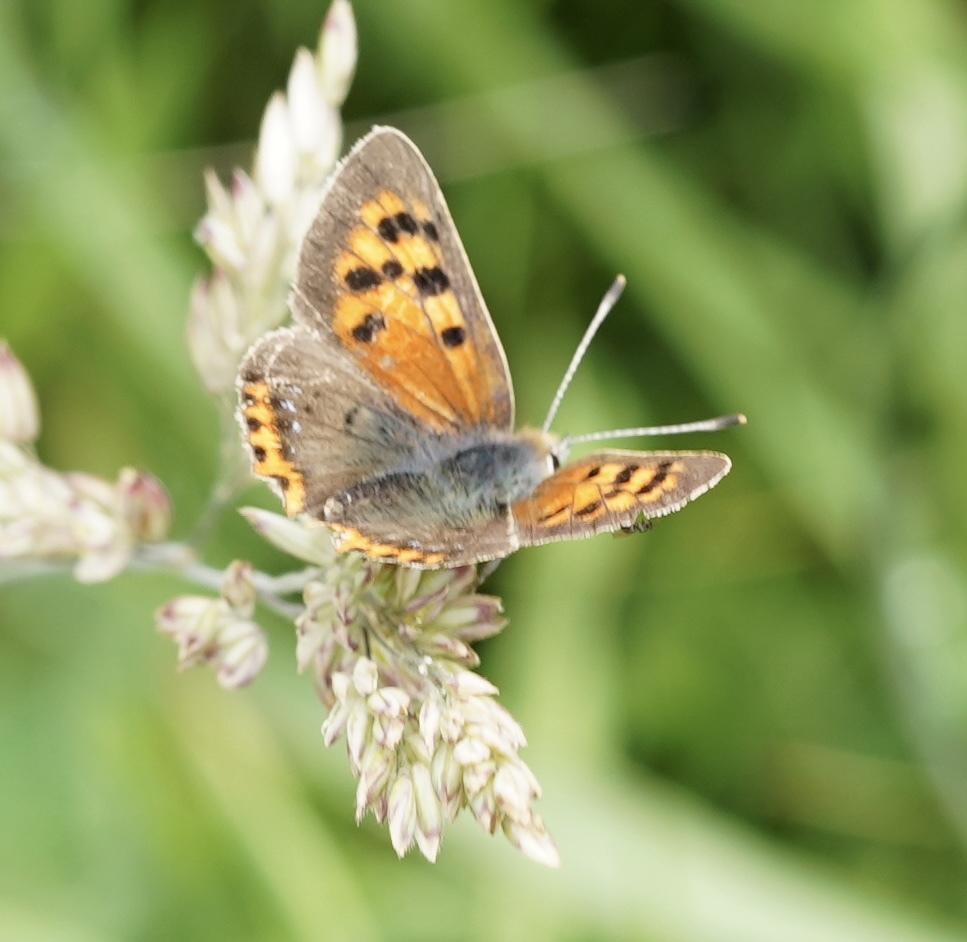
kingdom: Animalia
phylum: Arthropoda
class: Insecta
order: Lepidoptera
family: Lycaenidae
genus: Lycaena
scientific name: Lycaena phlaeas
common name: Small copper
